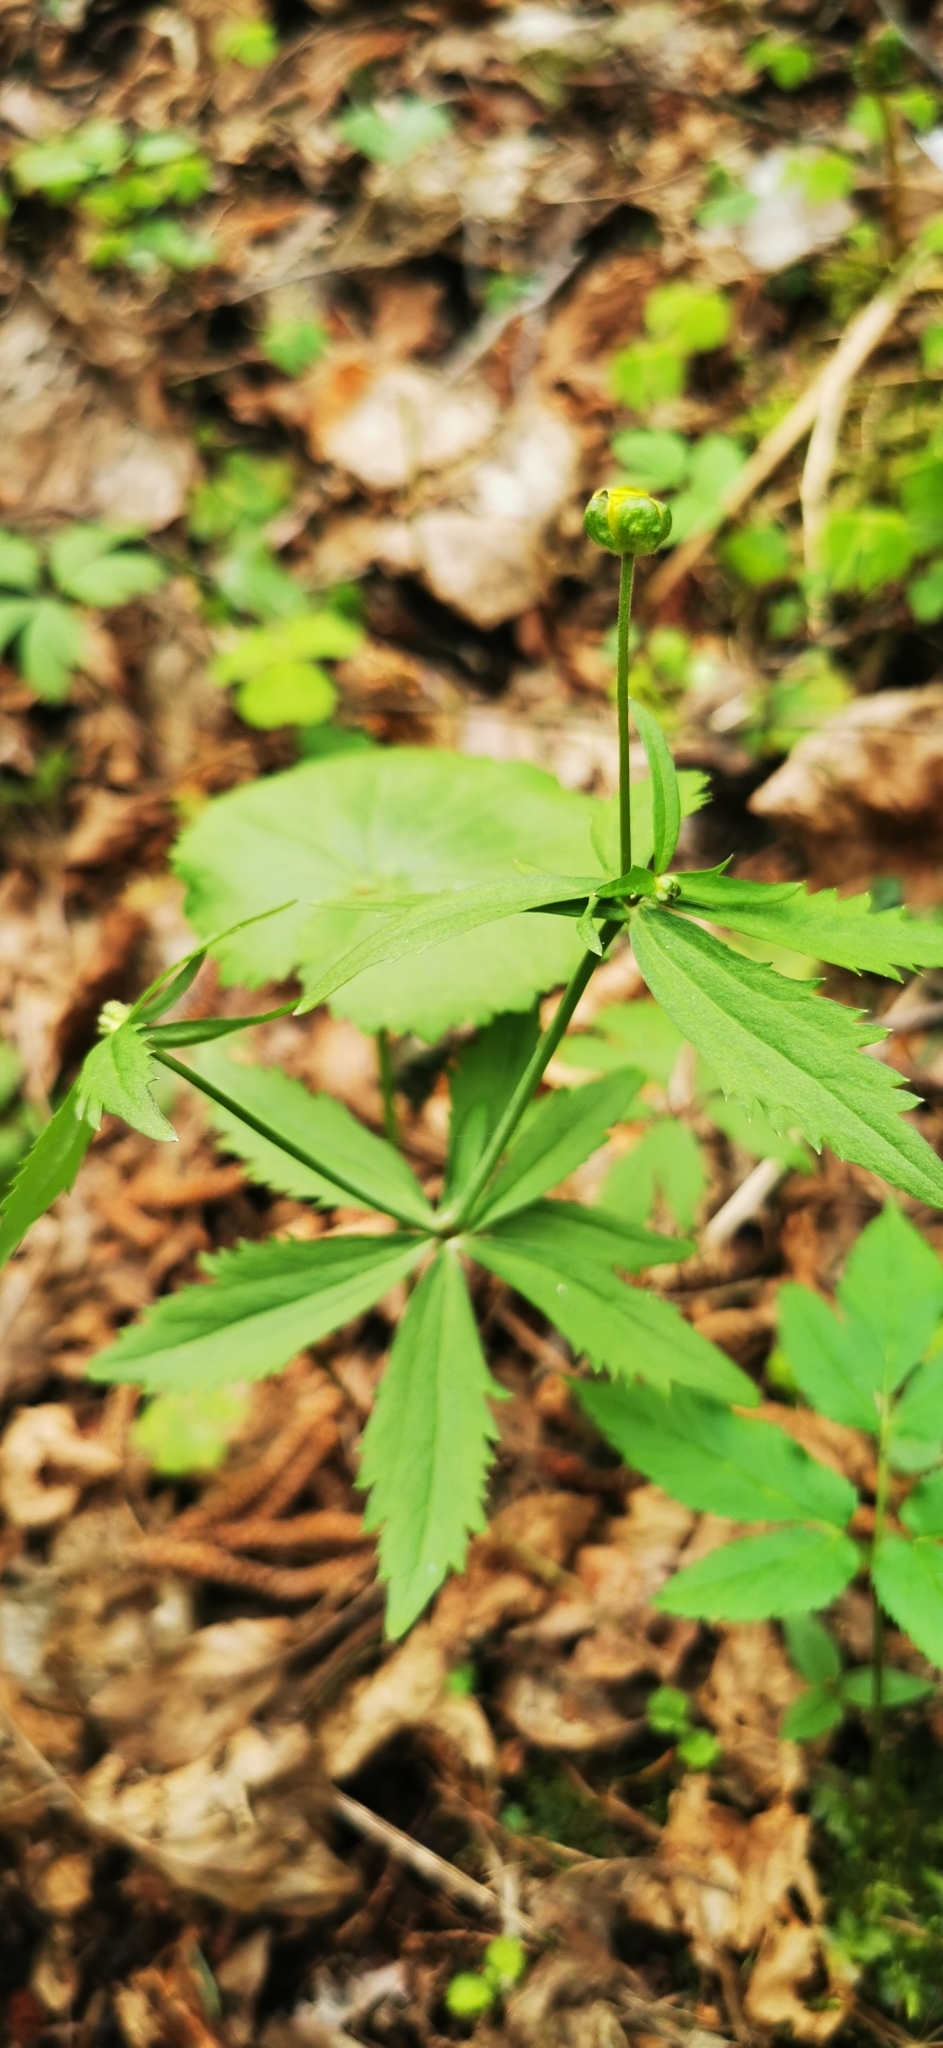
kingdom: Plantae
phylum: Tracheophyta
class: Magnoliopsida
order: Ranunculales
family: Ranunculaceae
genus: Ranunculus
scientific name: Ranunculus cassubicus
